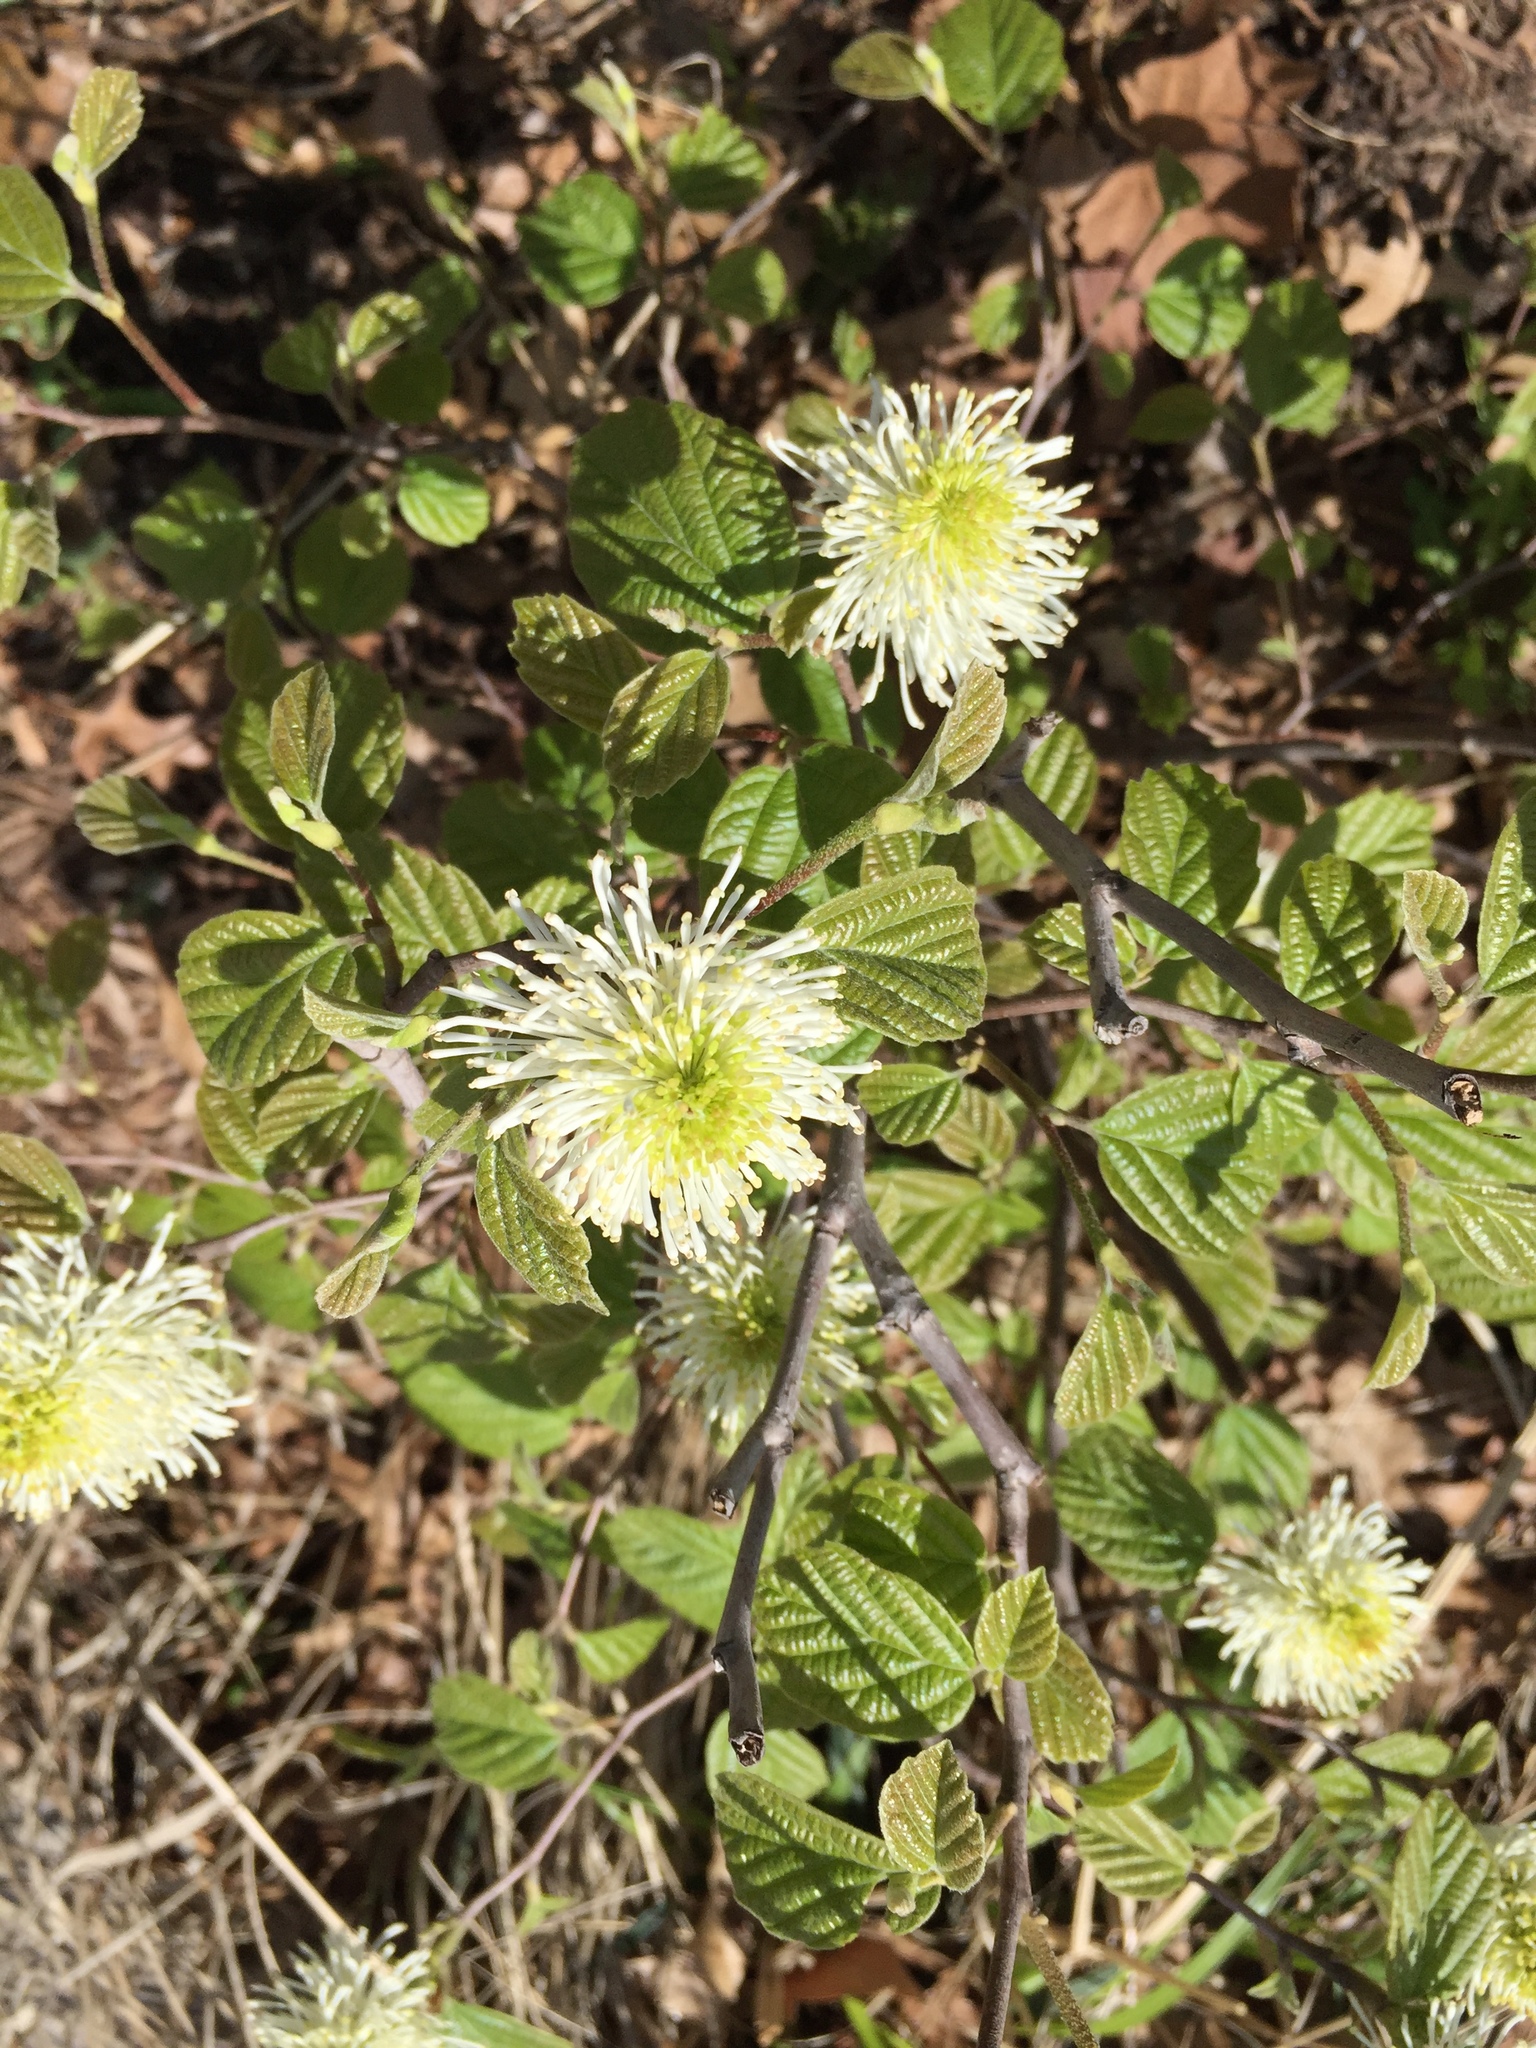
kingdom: Plantae
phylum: Tracheophyta
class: Magnoliopsida
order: Saxifragales
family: Hamamelidaceae
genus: Fothergilla
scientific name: Fothergilla intermedia
